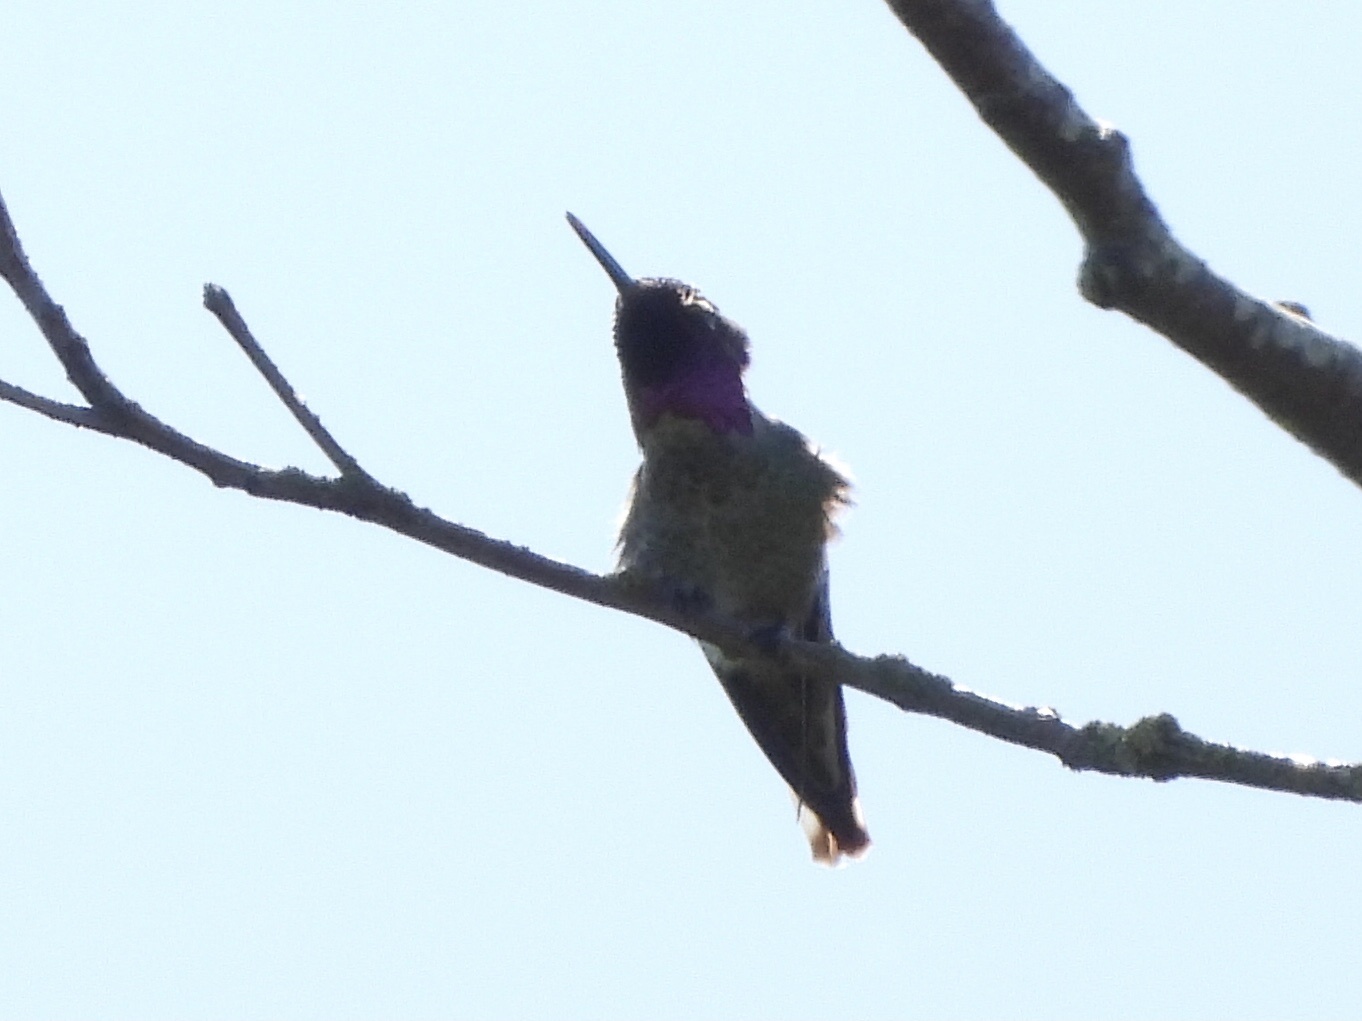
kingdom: Animalia
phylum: Chordata
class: Aves
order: Apodiformes
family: Trochilidae
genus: Calypte
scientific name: Calypte anna
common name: Anna's hummingbird
